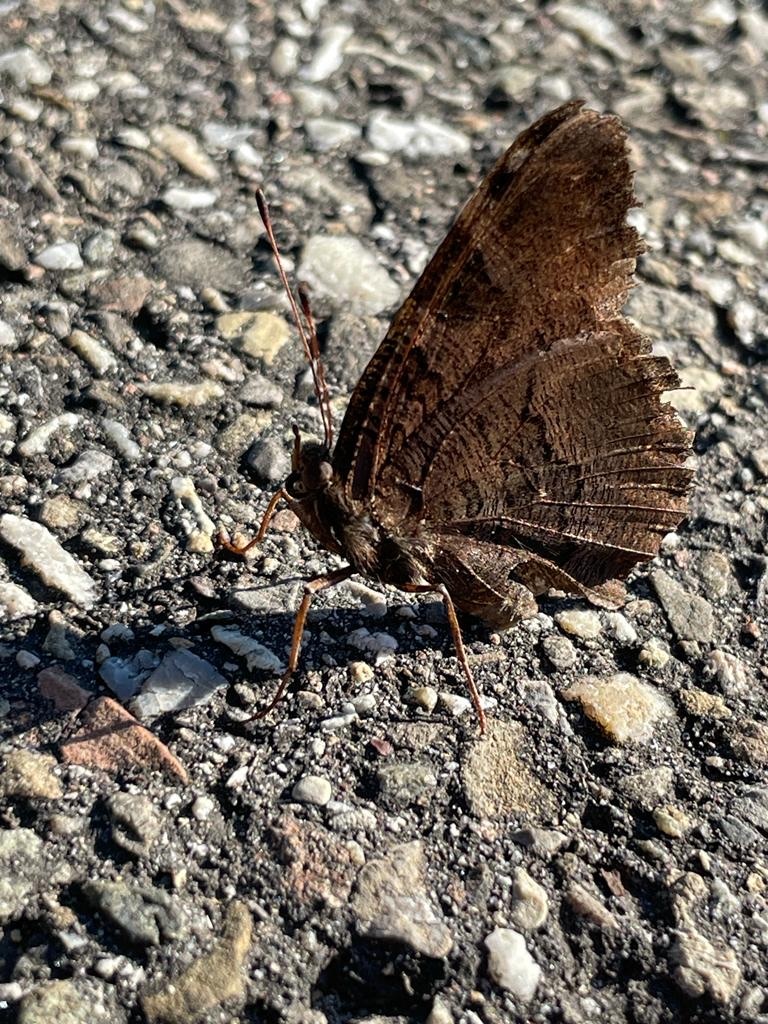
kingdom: Animalia
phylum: Arthropoda
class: Insecta
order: Lepidoptera
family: Nymphalidae
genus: Aglais
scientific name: Aglais io
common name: Peacock
